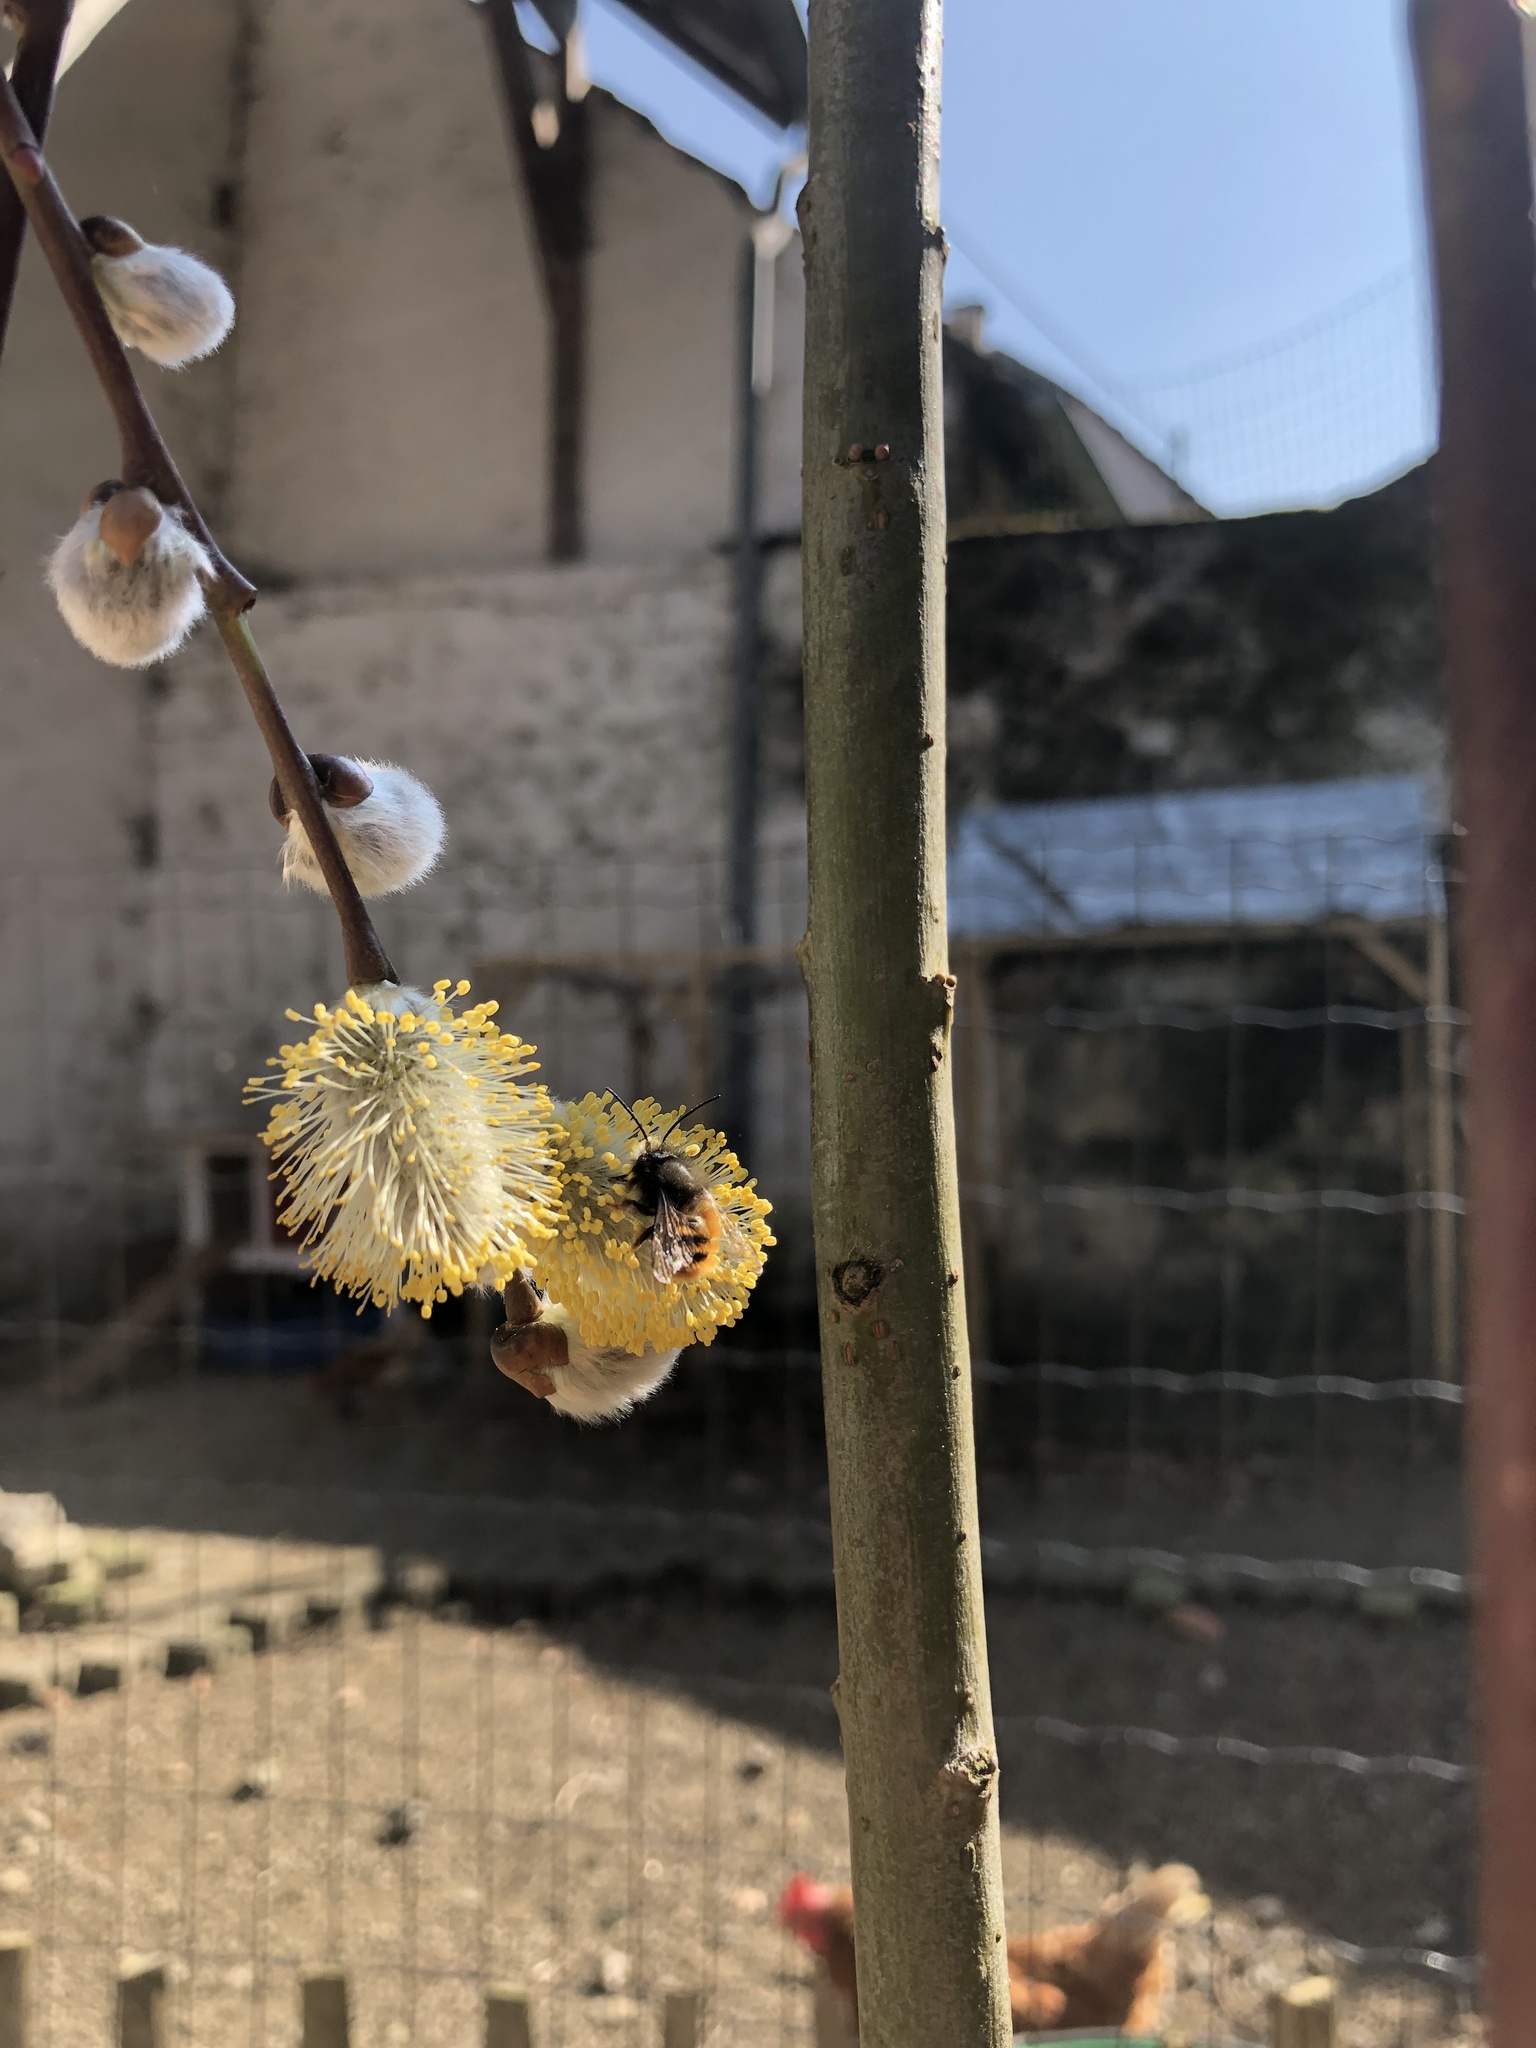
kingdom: Animalia
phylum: Arthropoda
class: Insecta
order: Hymenoptera
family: Megachilidae
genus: Osmia
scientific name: Osmia cornuta
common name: Mason bee
